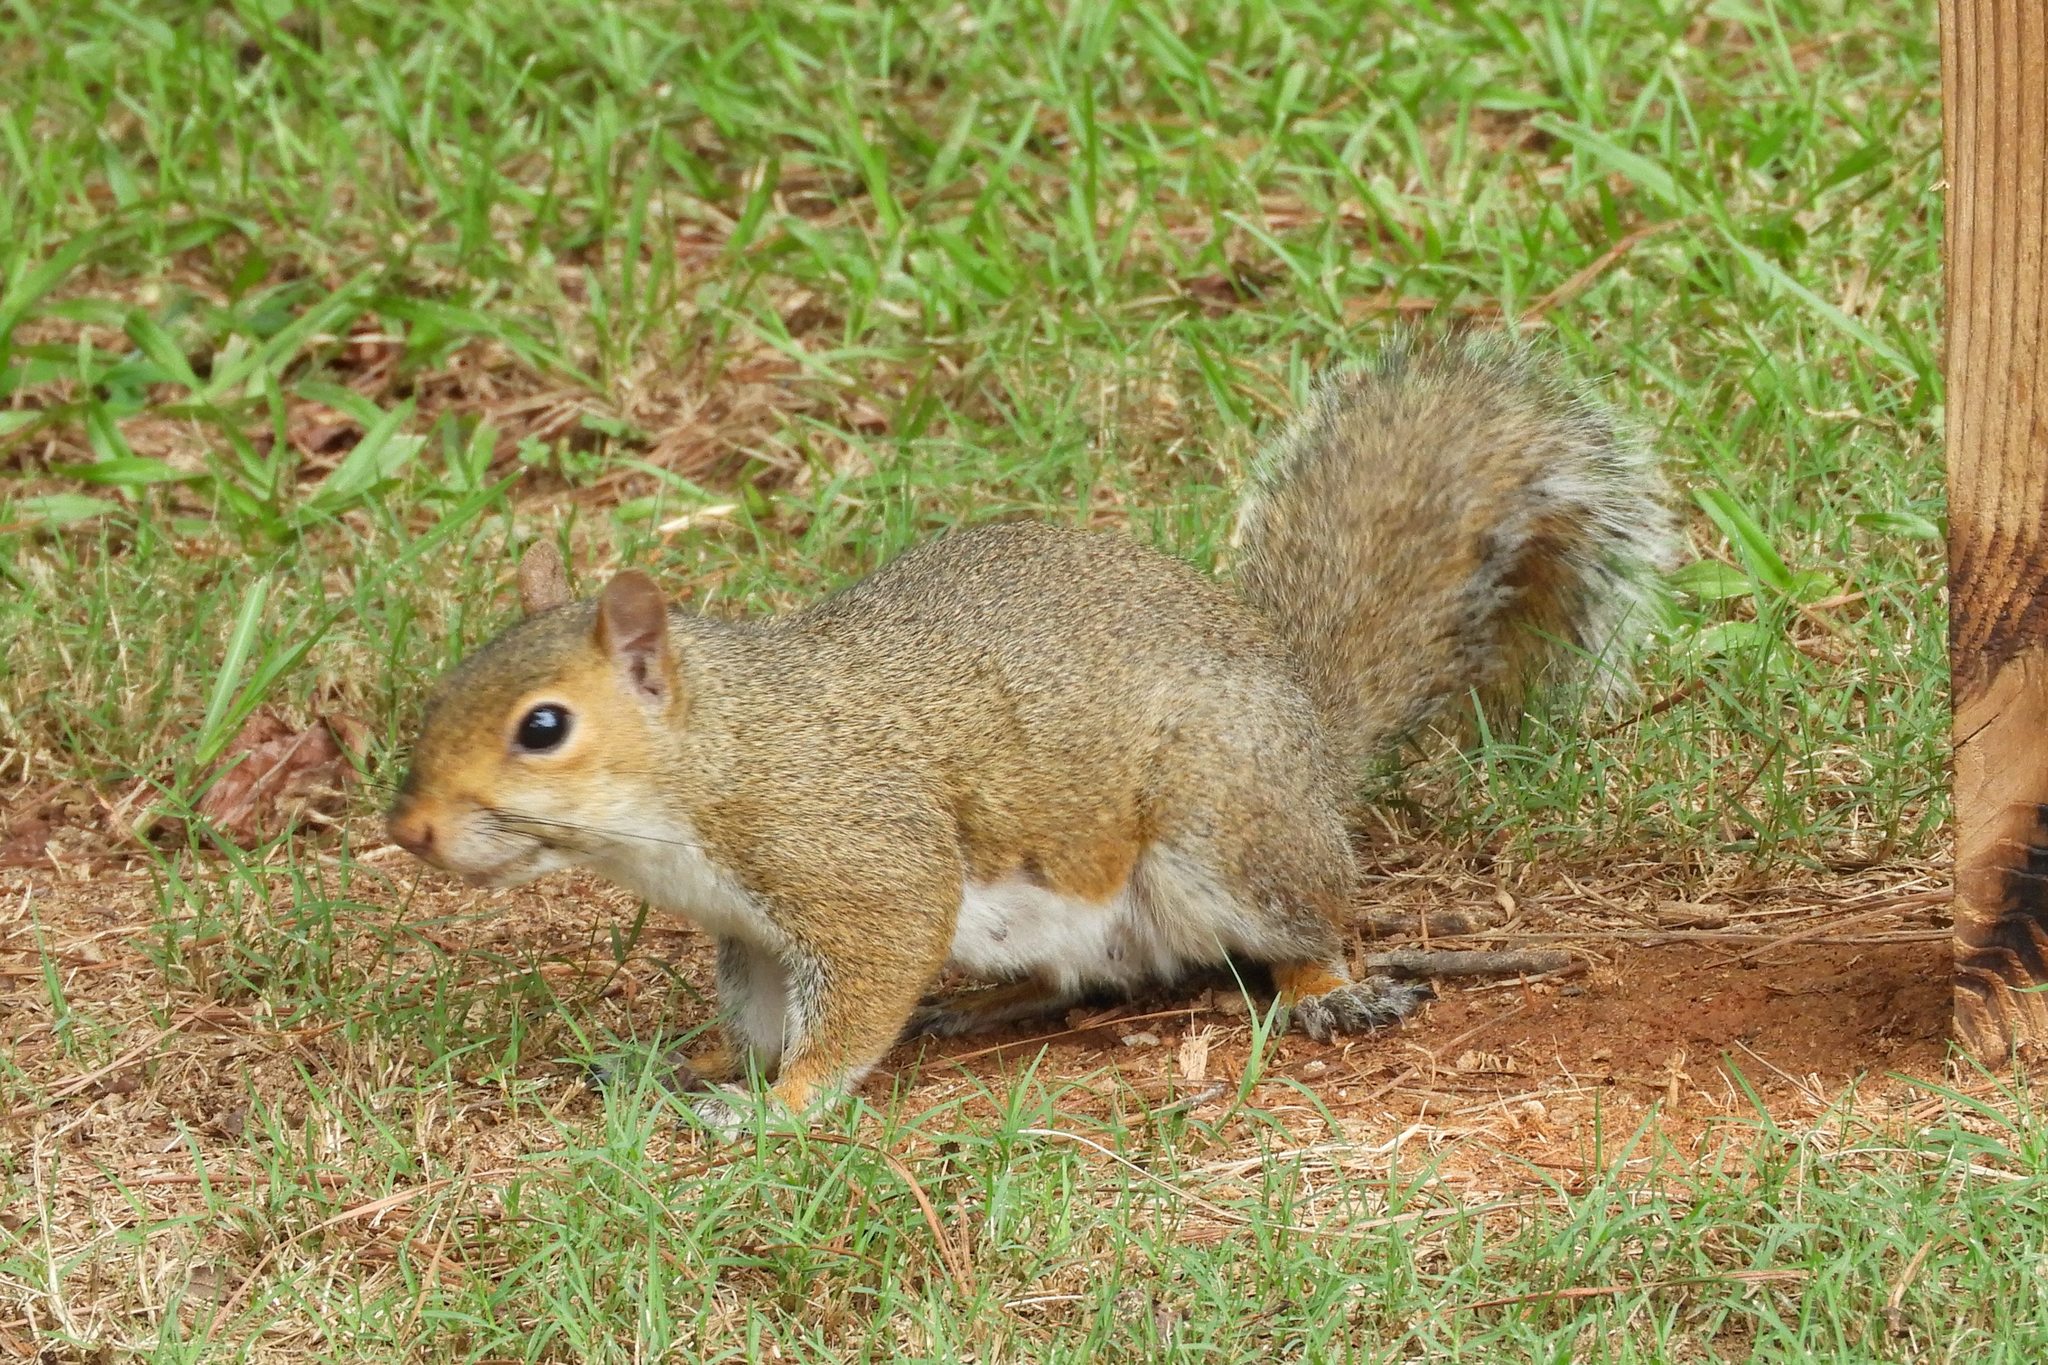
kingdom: Animalia
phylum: Chordata
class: Mammalia
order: Rodentia
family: Sciuridae
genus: Sciurus
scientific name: Sciurus carolinensis
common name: Eastern gray squirrel
